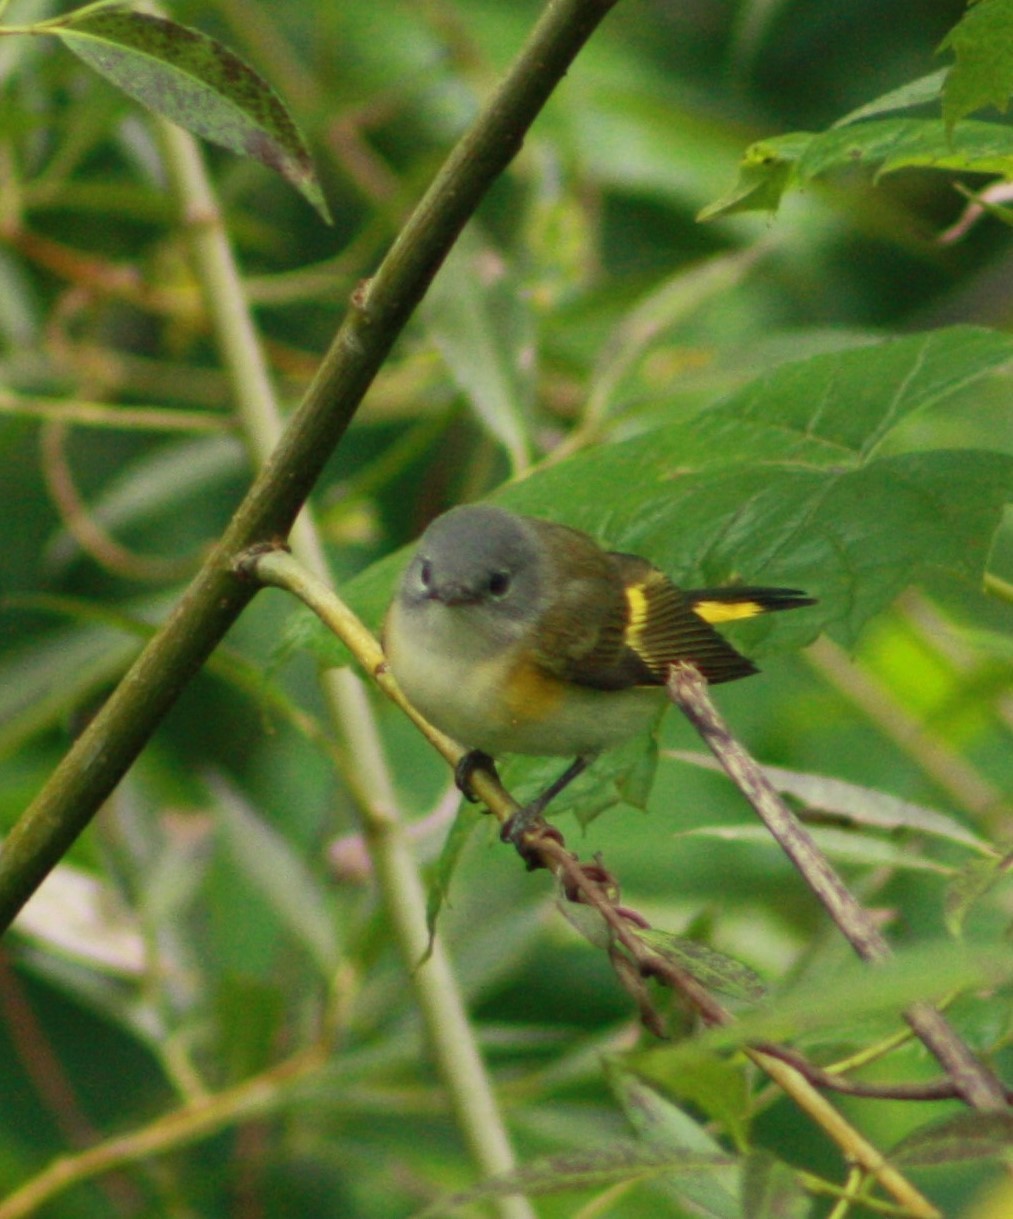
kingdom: Animalia
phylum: Chordata
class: Aves
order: Passeriformes
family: Parulidae
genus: Setophaga
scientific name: Setophaga ruticilla
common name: American redstart
